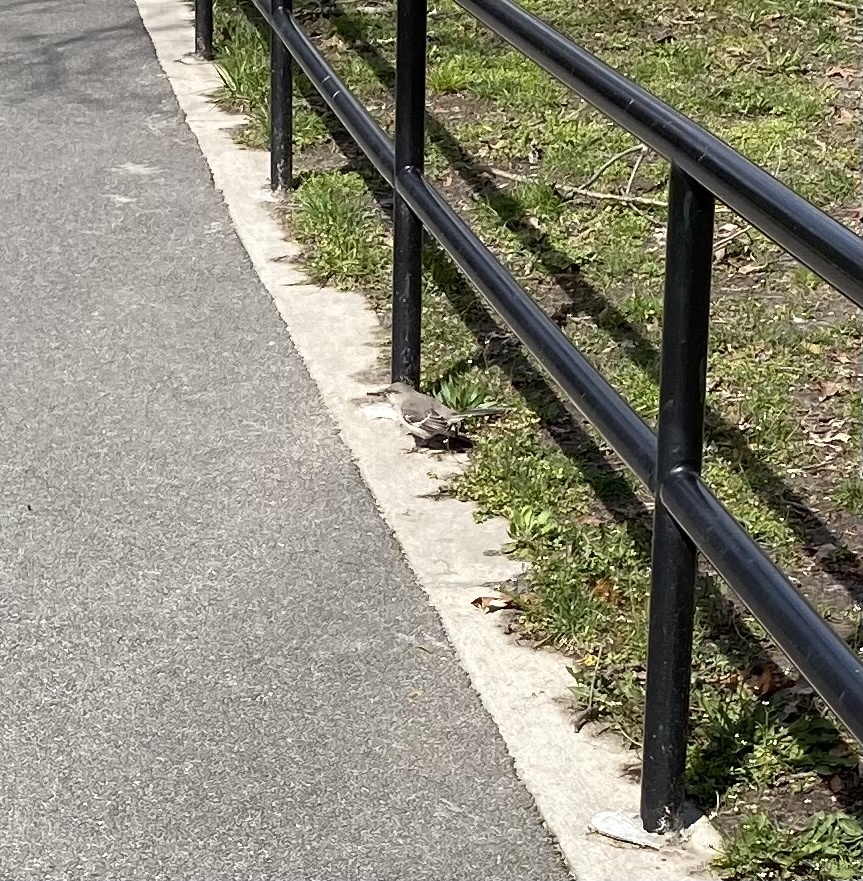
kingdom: Animalia
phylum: Chordata
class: Aves
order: Passeriformes
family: Mimidae
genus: Mimus
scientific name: Mimus polyglottos
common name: Northern mockingbird
